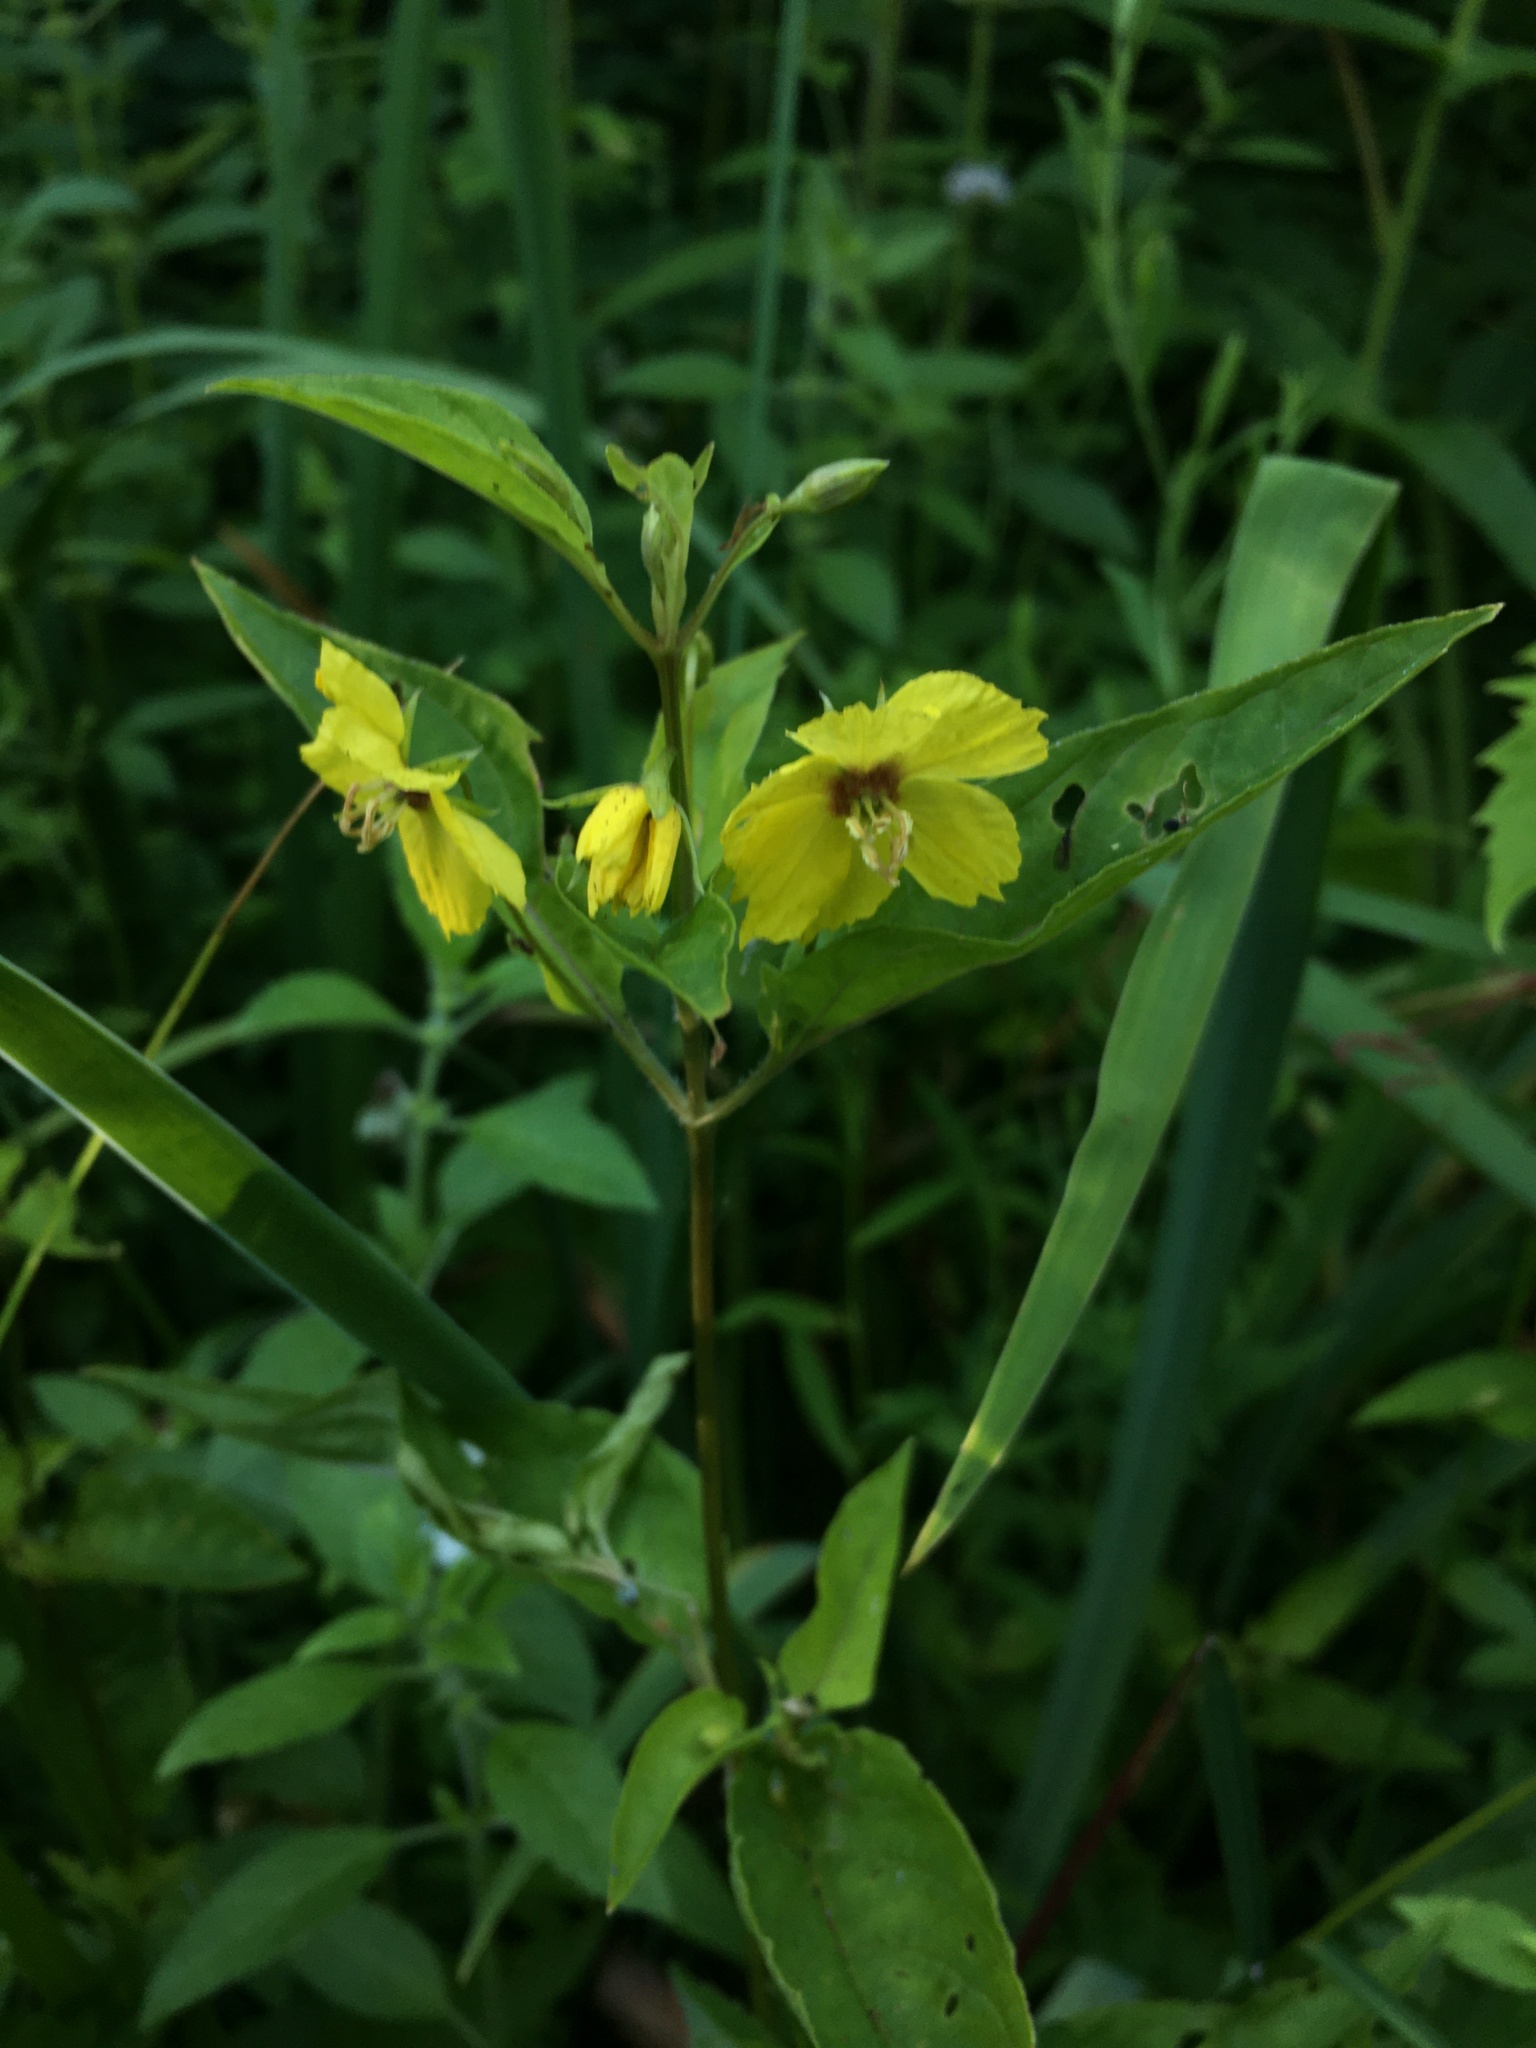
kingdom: Plantae
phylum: Tracheophyta
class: Magnoliopsida
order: Ericales
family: Primulaceae
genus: Lysimachia
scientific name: Lysimachia ciliata
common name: Fringed loosestrife
